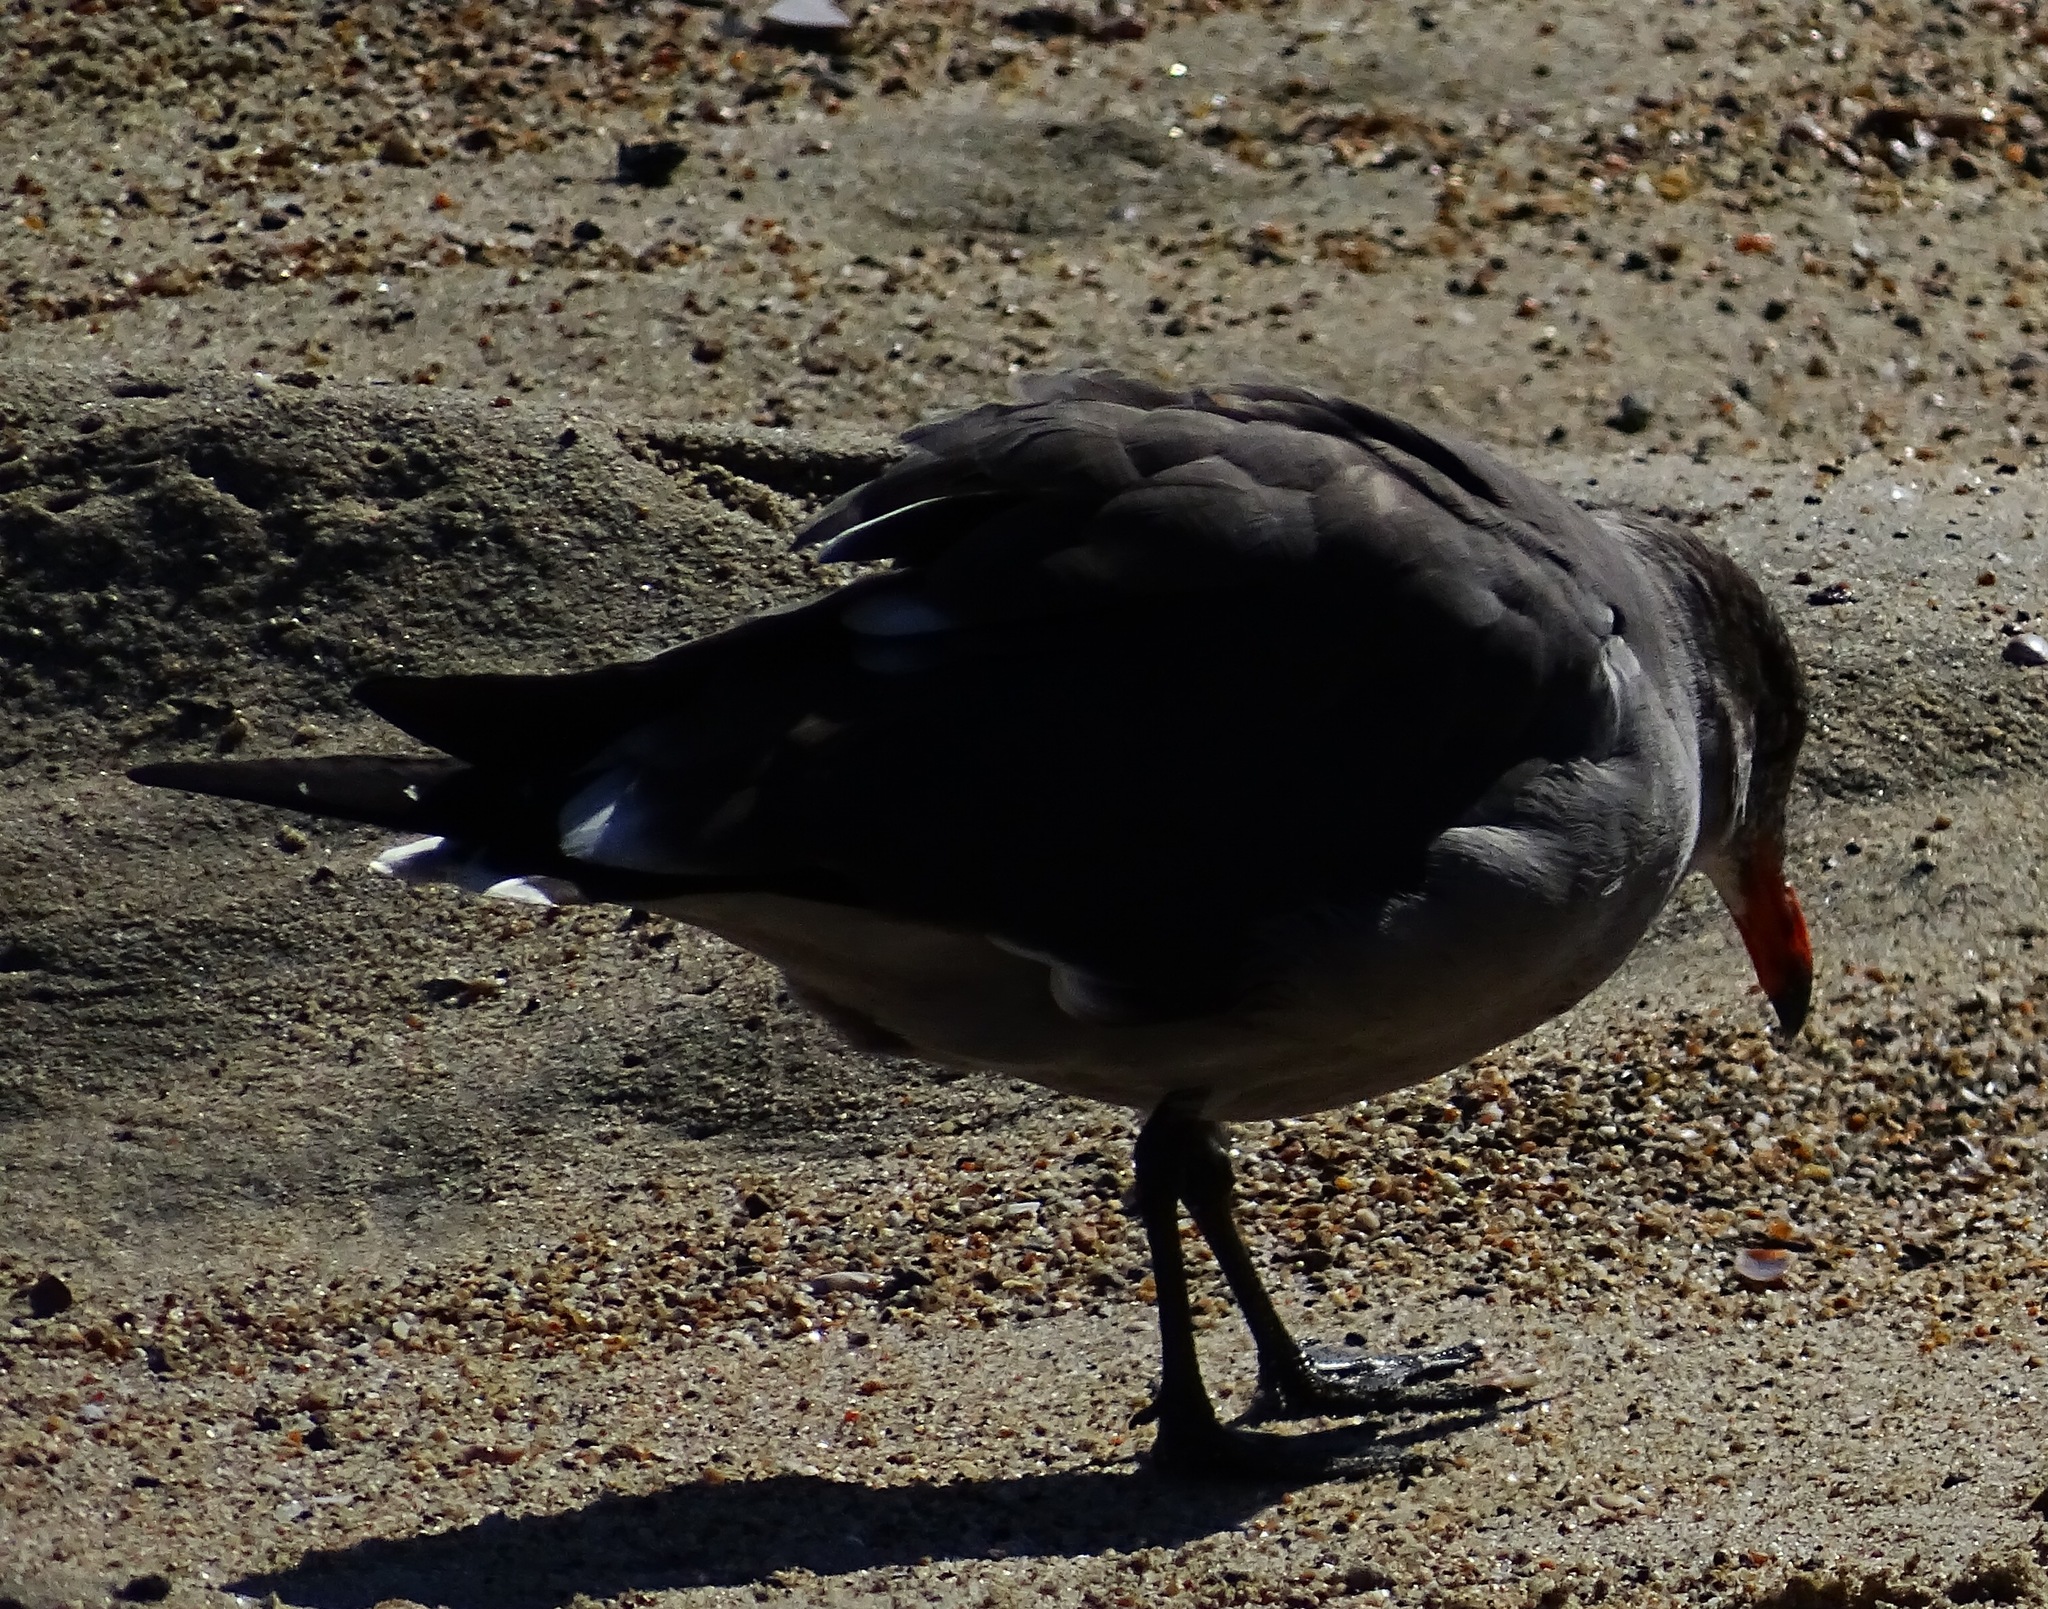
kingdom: Animalia
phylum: Chordata
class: Aves
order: Charadriiformes
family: Laridae
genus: Larus
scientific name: Larus heermanni
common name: Heermann's gull
